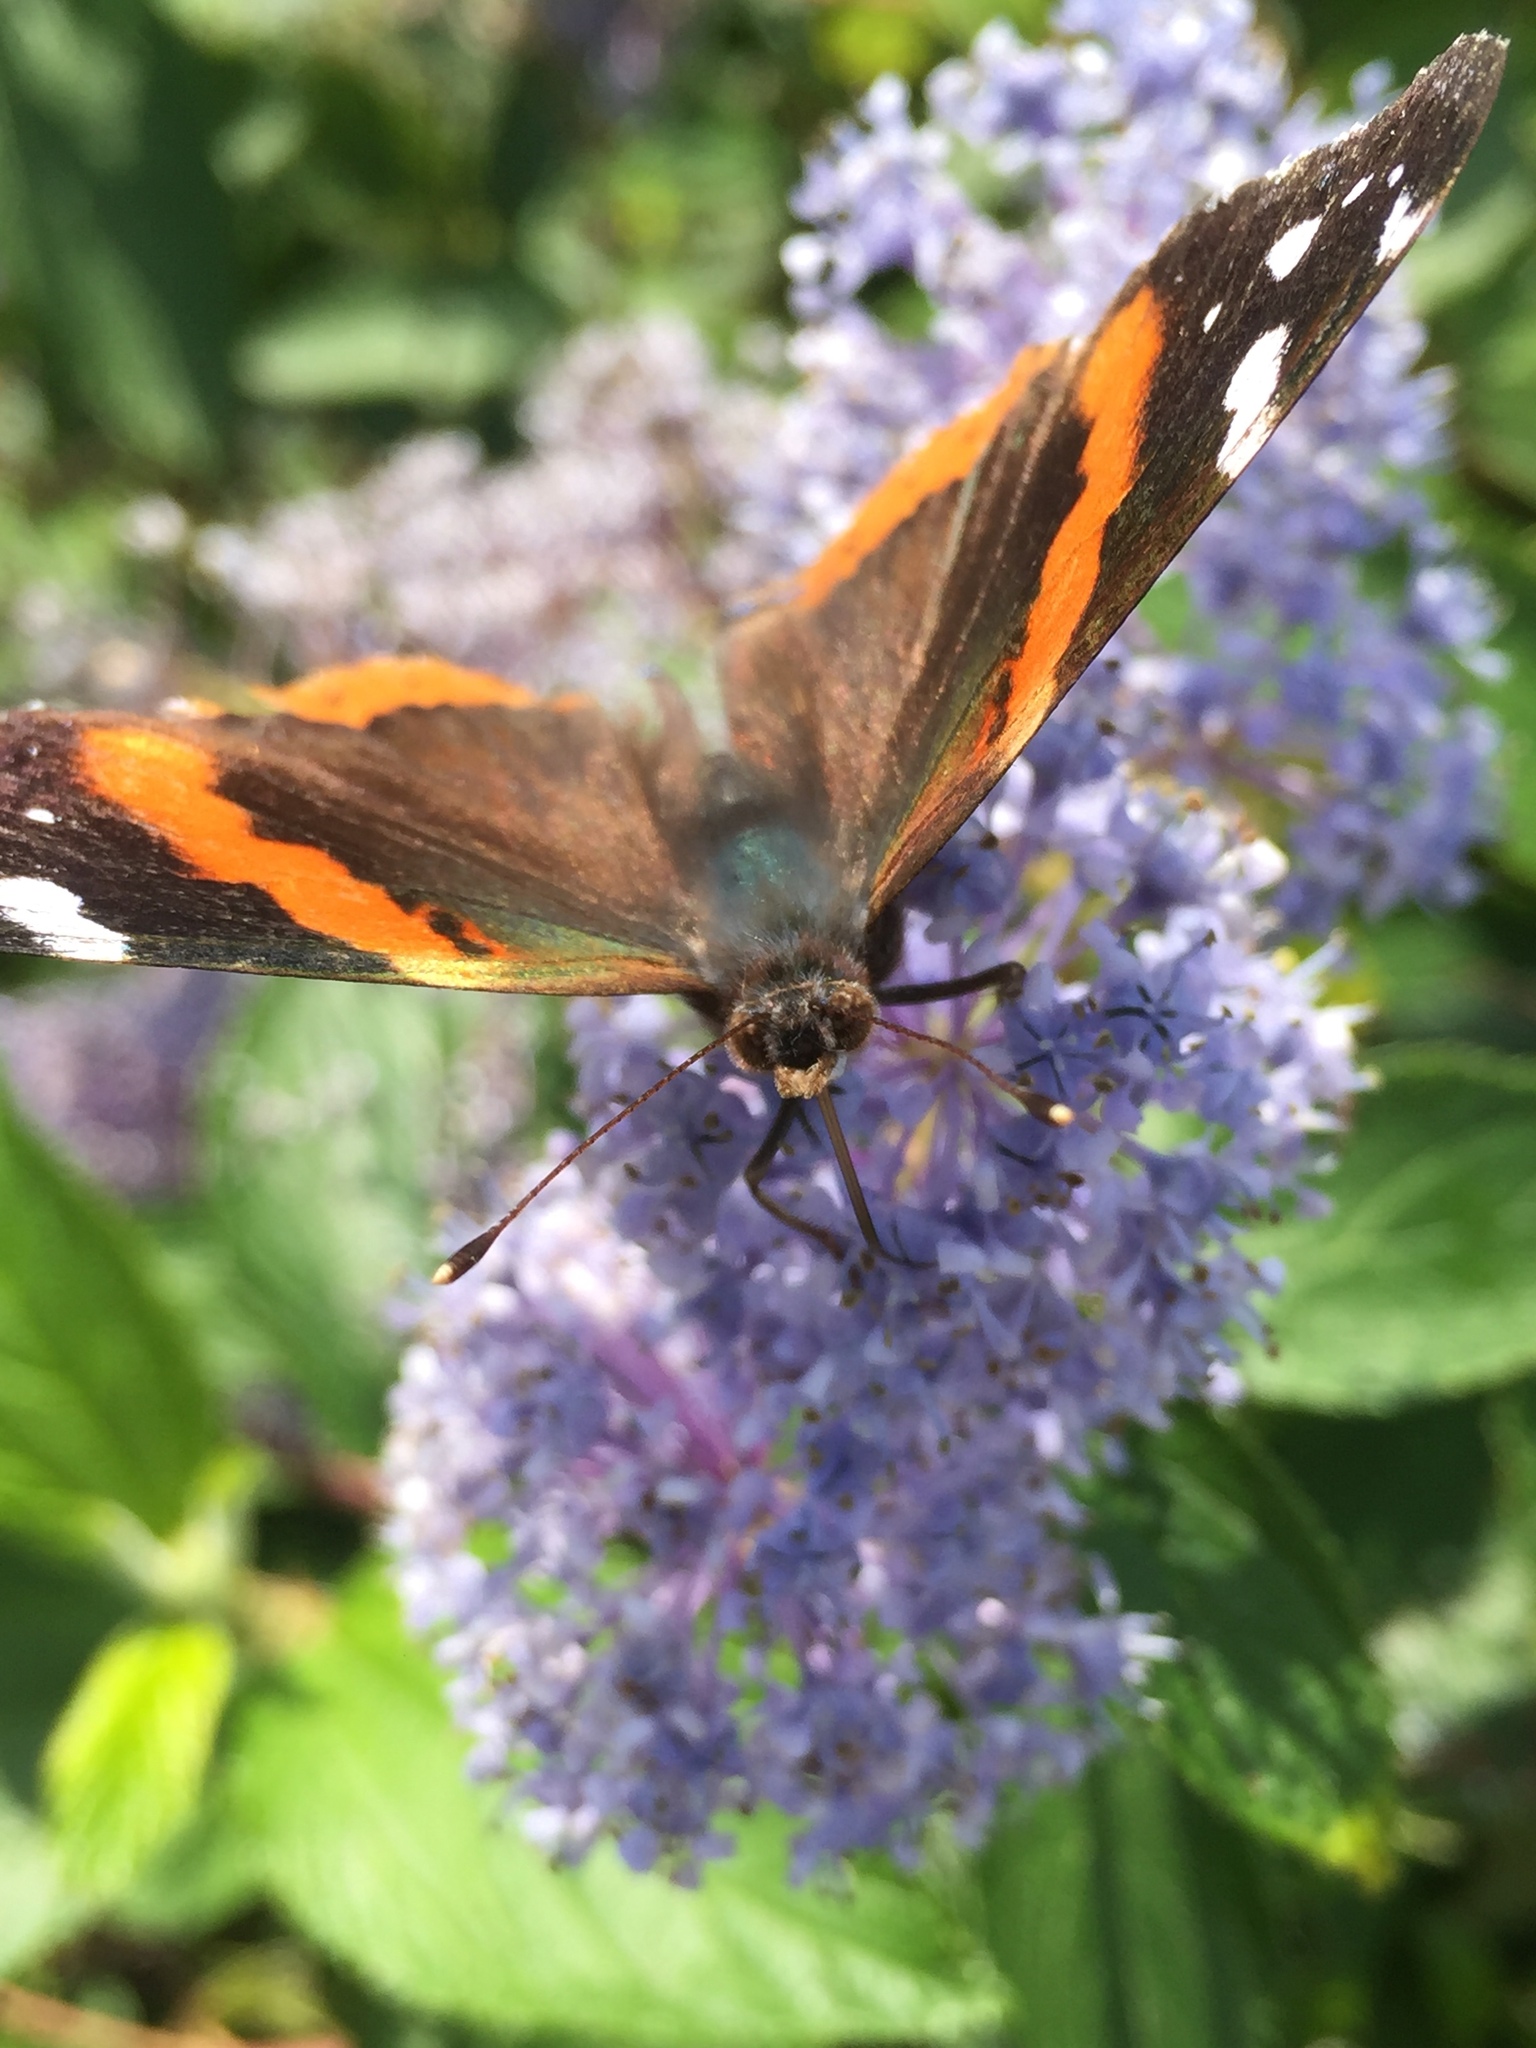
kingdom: Animalia
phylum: Arthropoda
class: Insecta
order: Lepidoptera
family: Nymphalidae
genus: Vanessa
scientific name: Vanessa atalanta
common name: Red admiral
